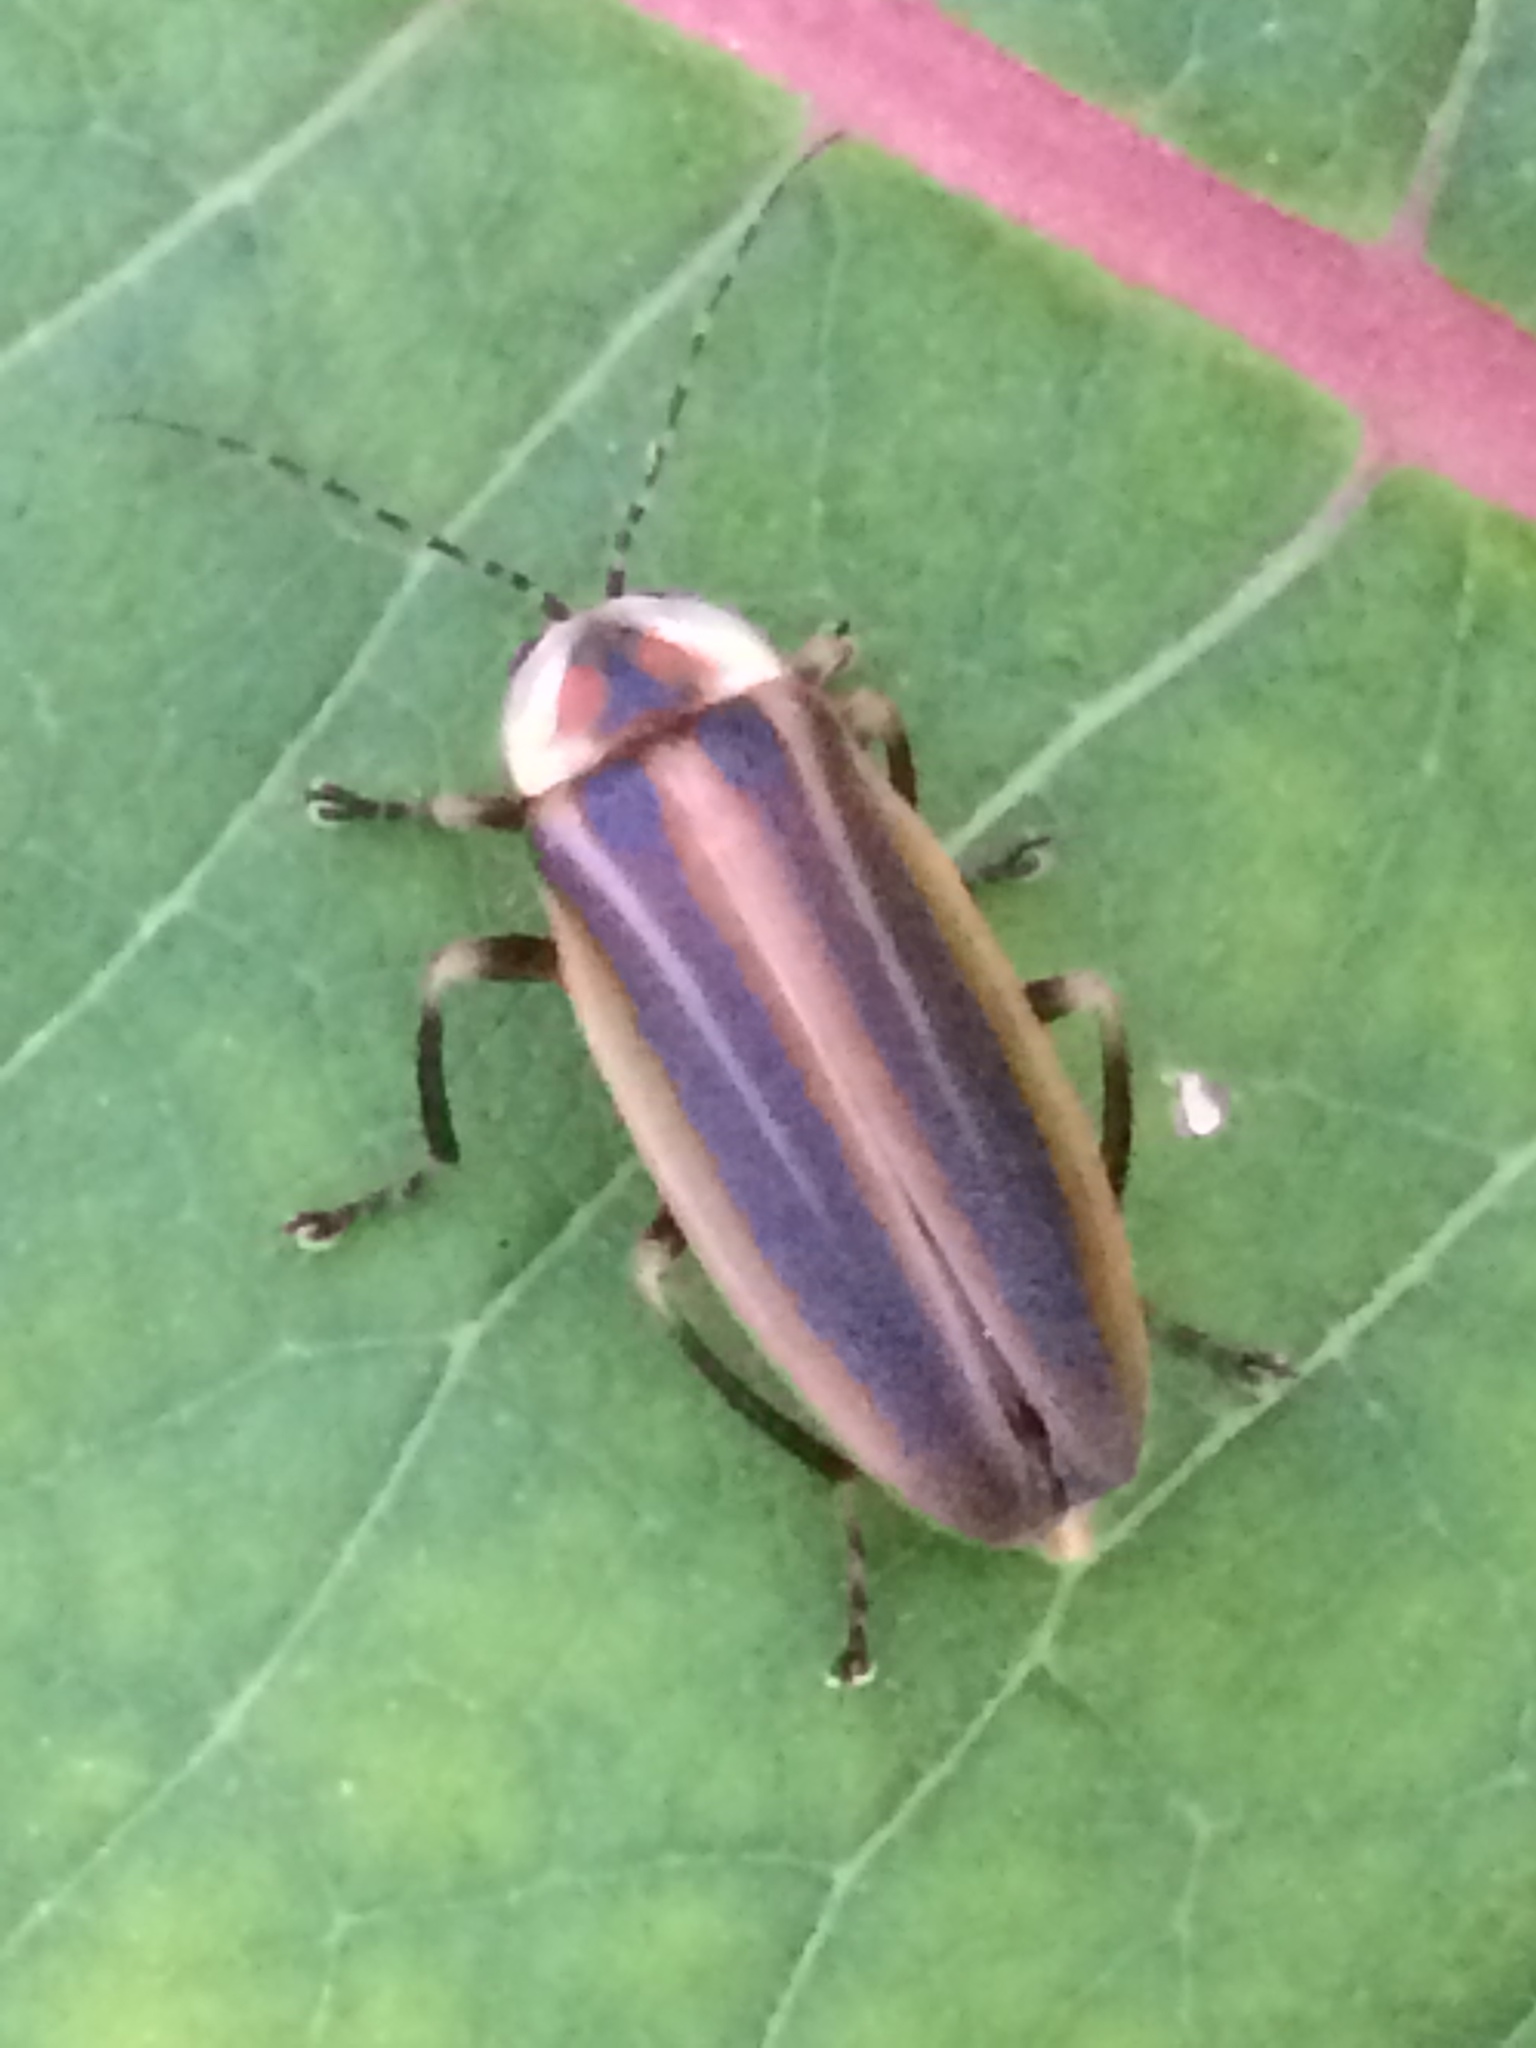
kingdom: Animalia
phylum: Arthropoda
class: Insecta
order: Coleoptera
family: Lampyridae
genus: Photuris
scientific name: Photuris
